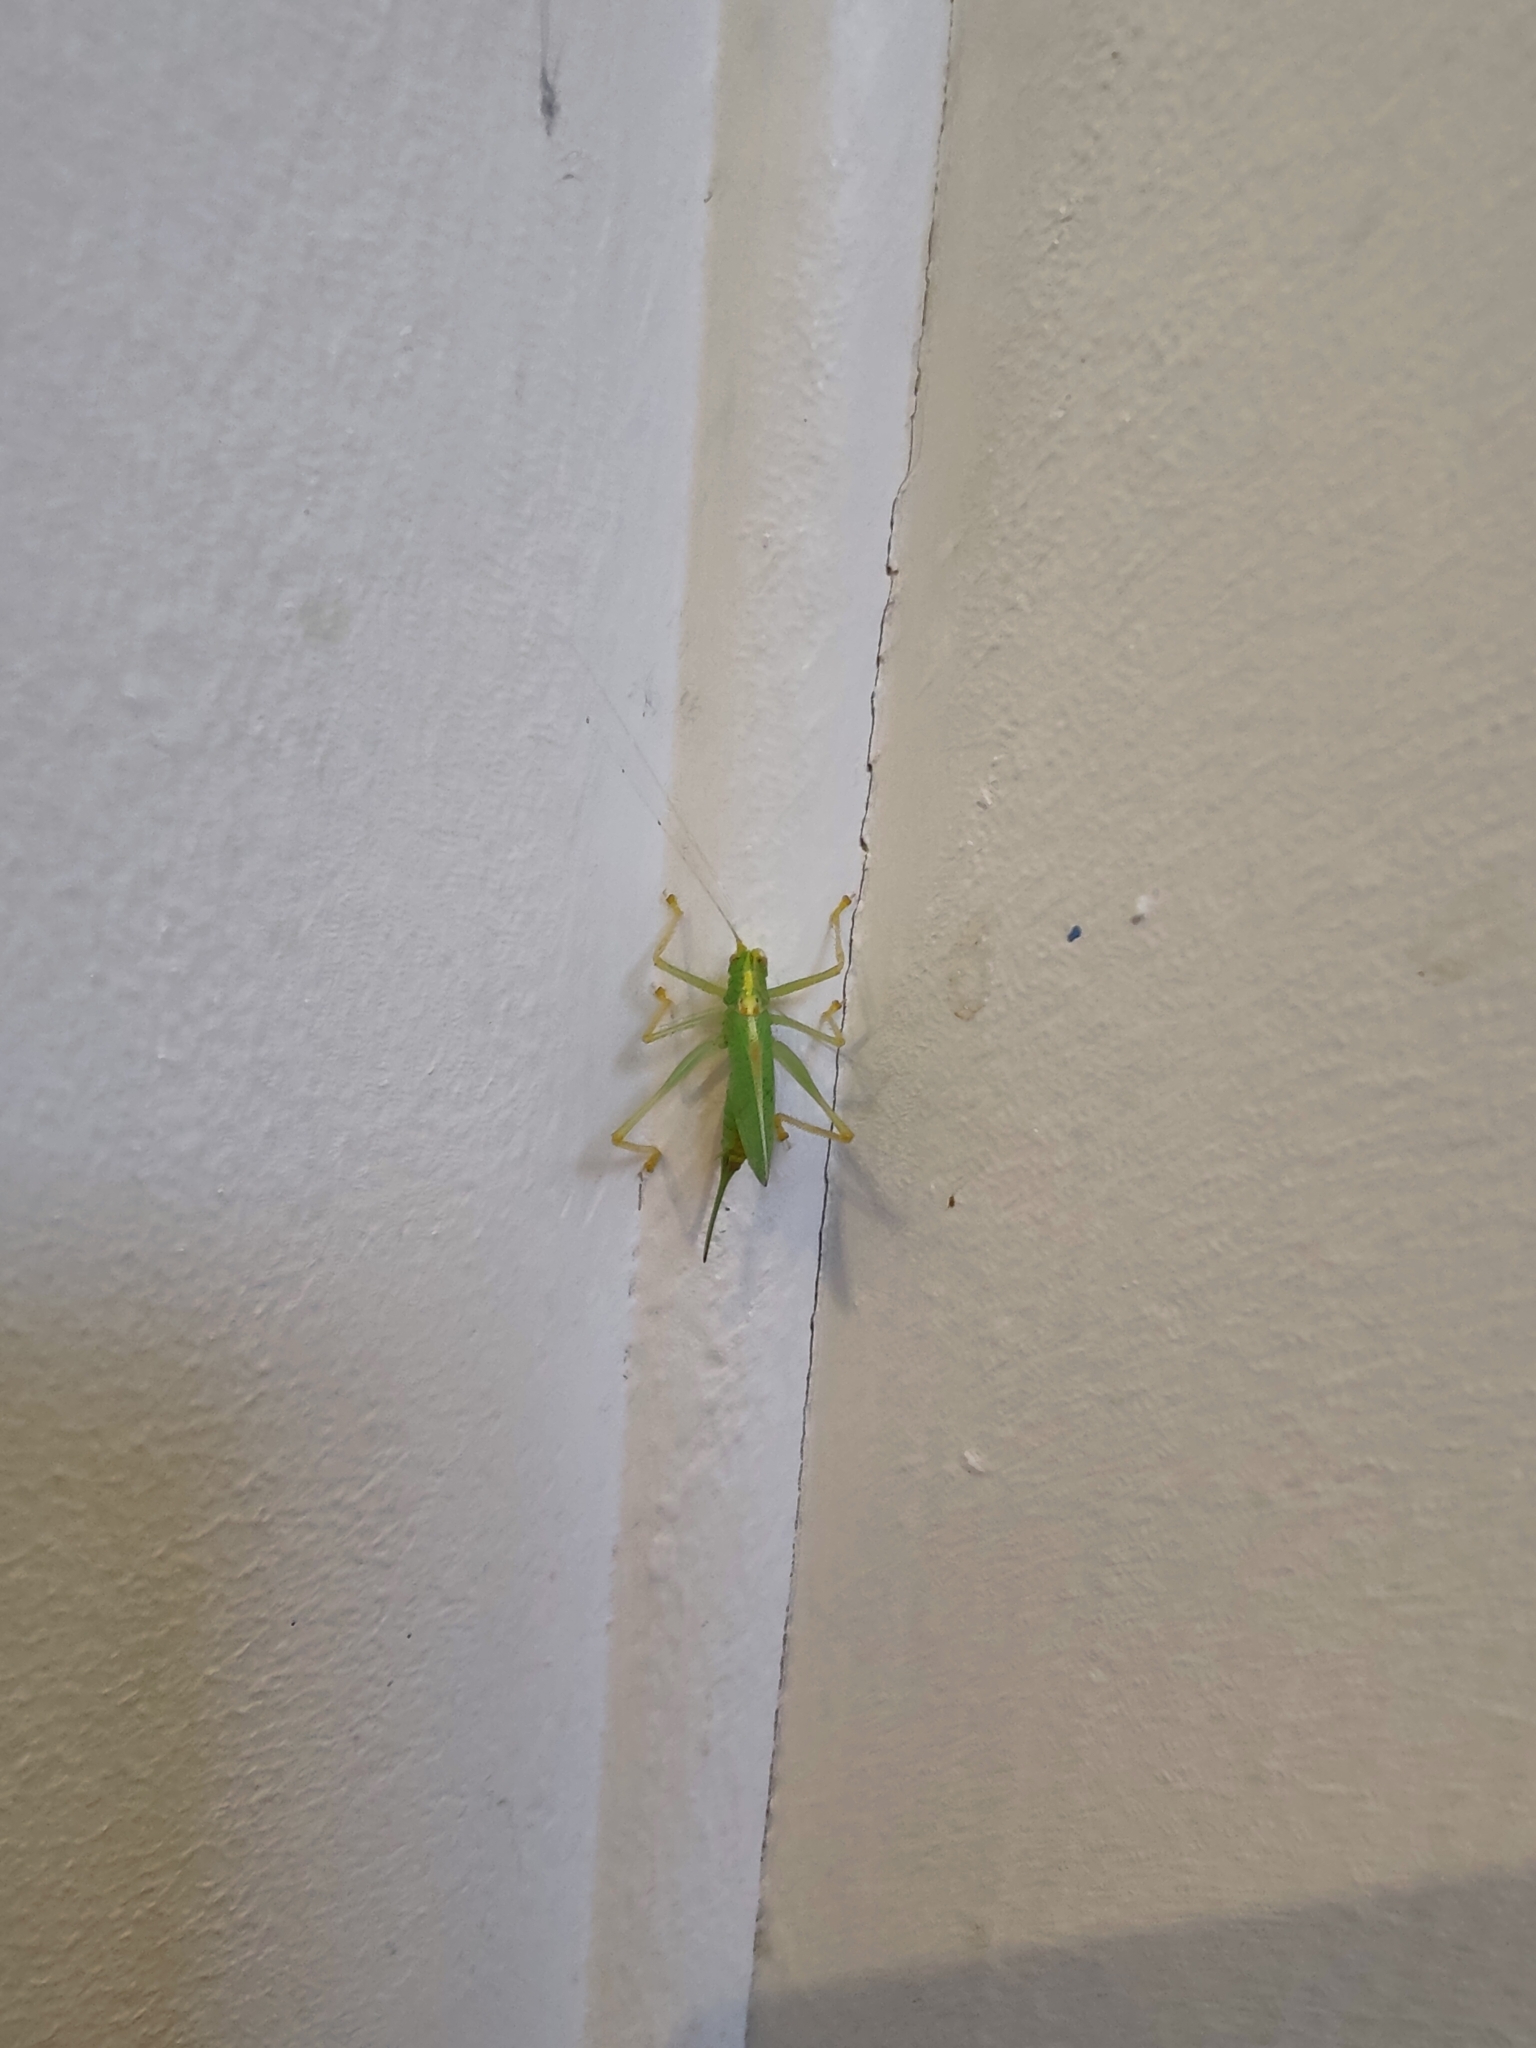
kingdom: Animalia
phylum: Arthropoda
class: Insecta
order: Orthoptera
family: Tettigoniidae
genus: Meconema
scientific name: Meconema thalassinum
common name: Oak bush-cricket
